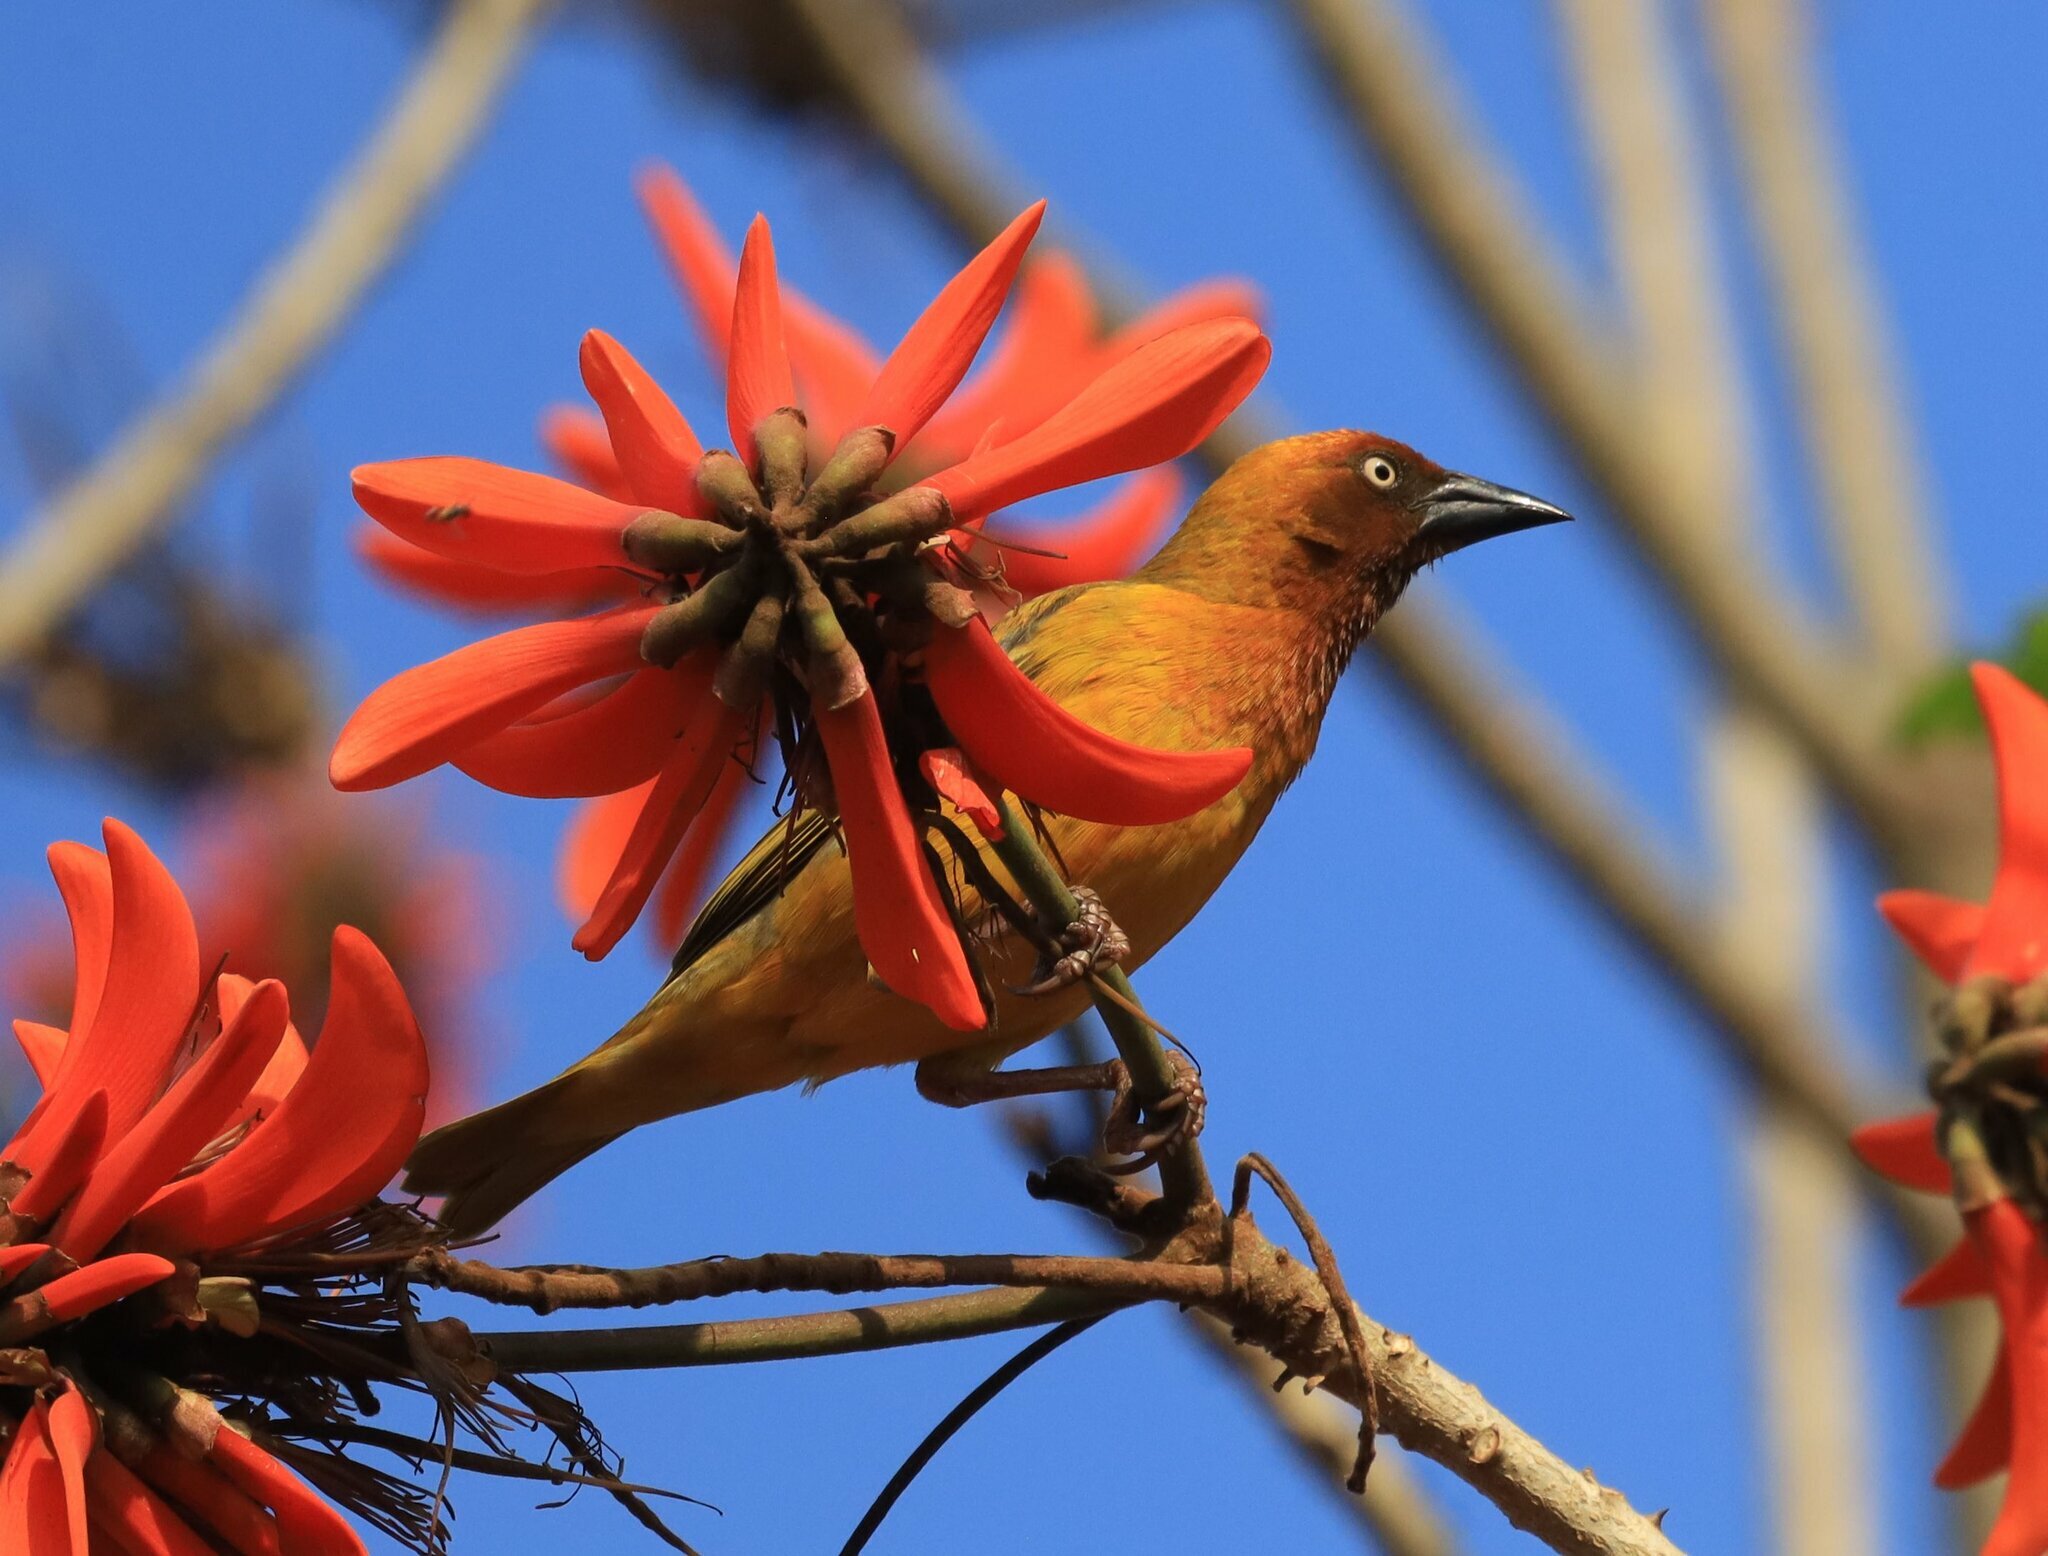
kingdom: Animalia
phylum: Chordata
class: Aves
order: Passeriformes
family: Ploceidae
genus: Ploceus
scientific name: Ploceus capensis
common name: Cape weaver
